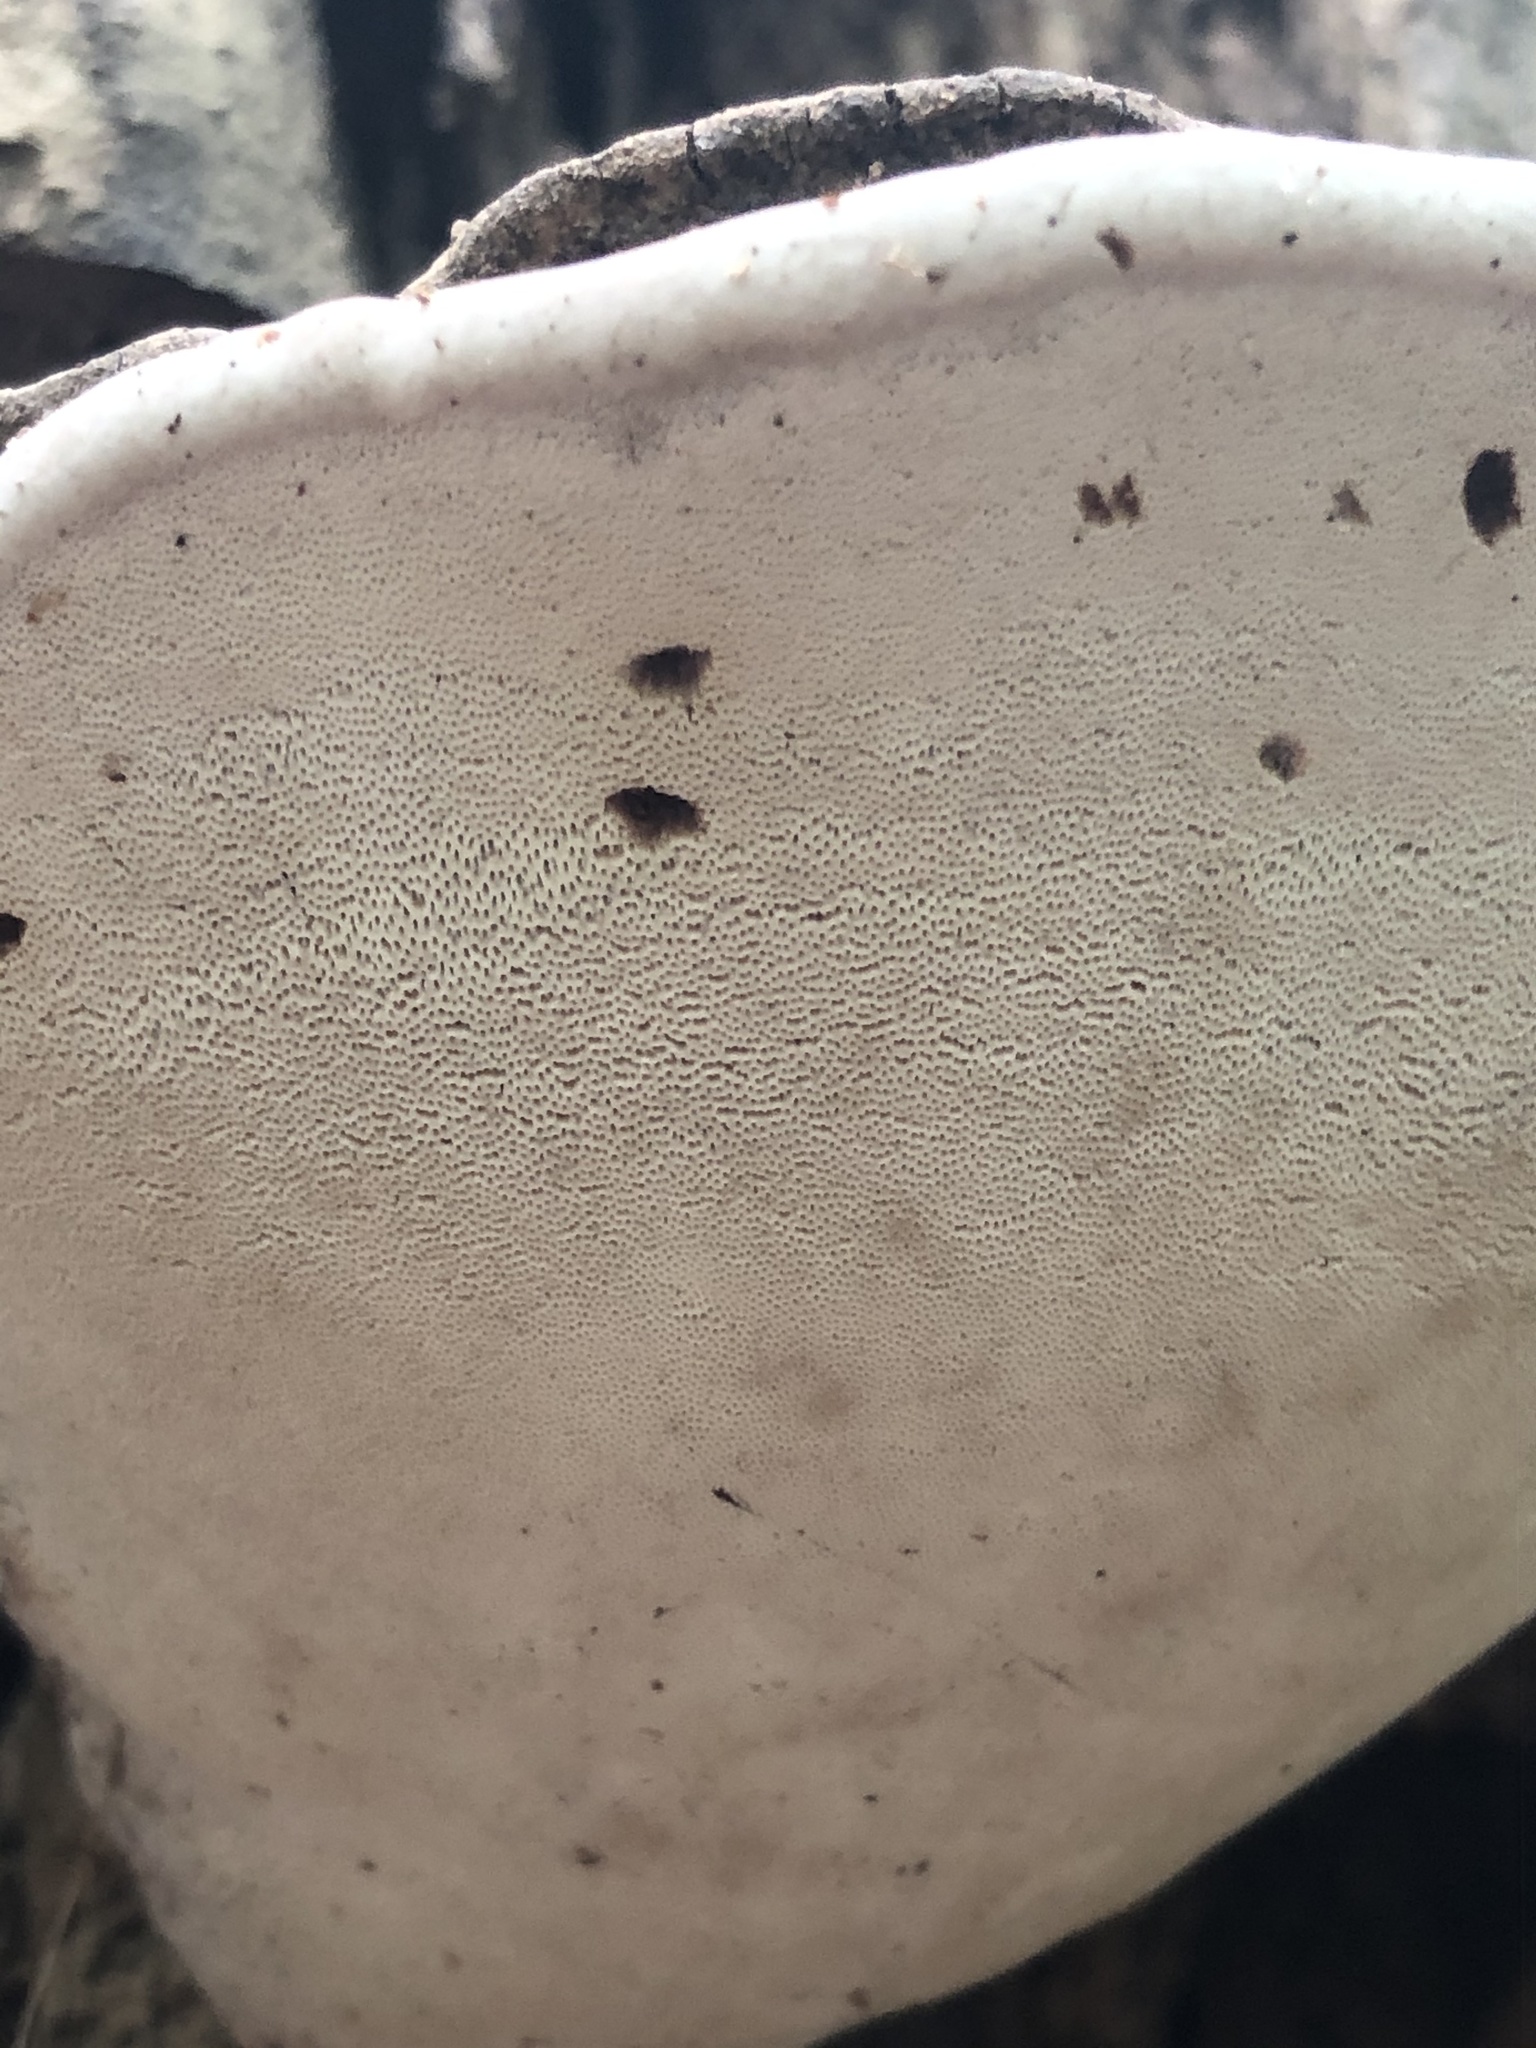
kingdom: Fungi
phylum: Basidiomycota
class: Agaricomycetes
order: Polyporales
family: Polyporaceae
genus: Ganoderma
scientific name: Ganoderma resinaceum
